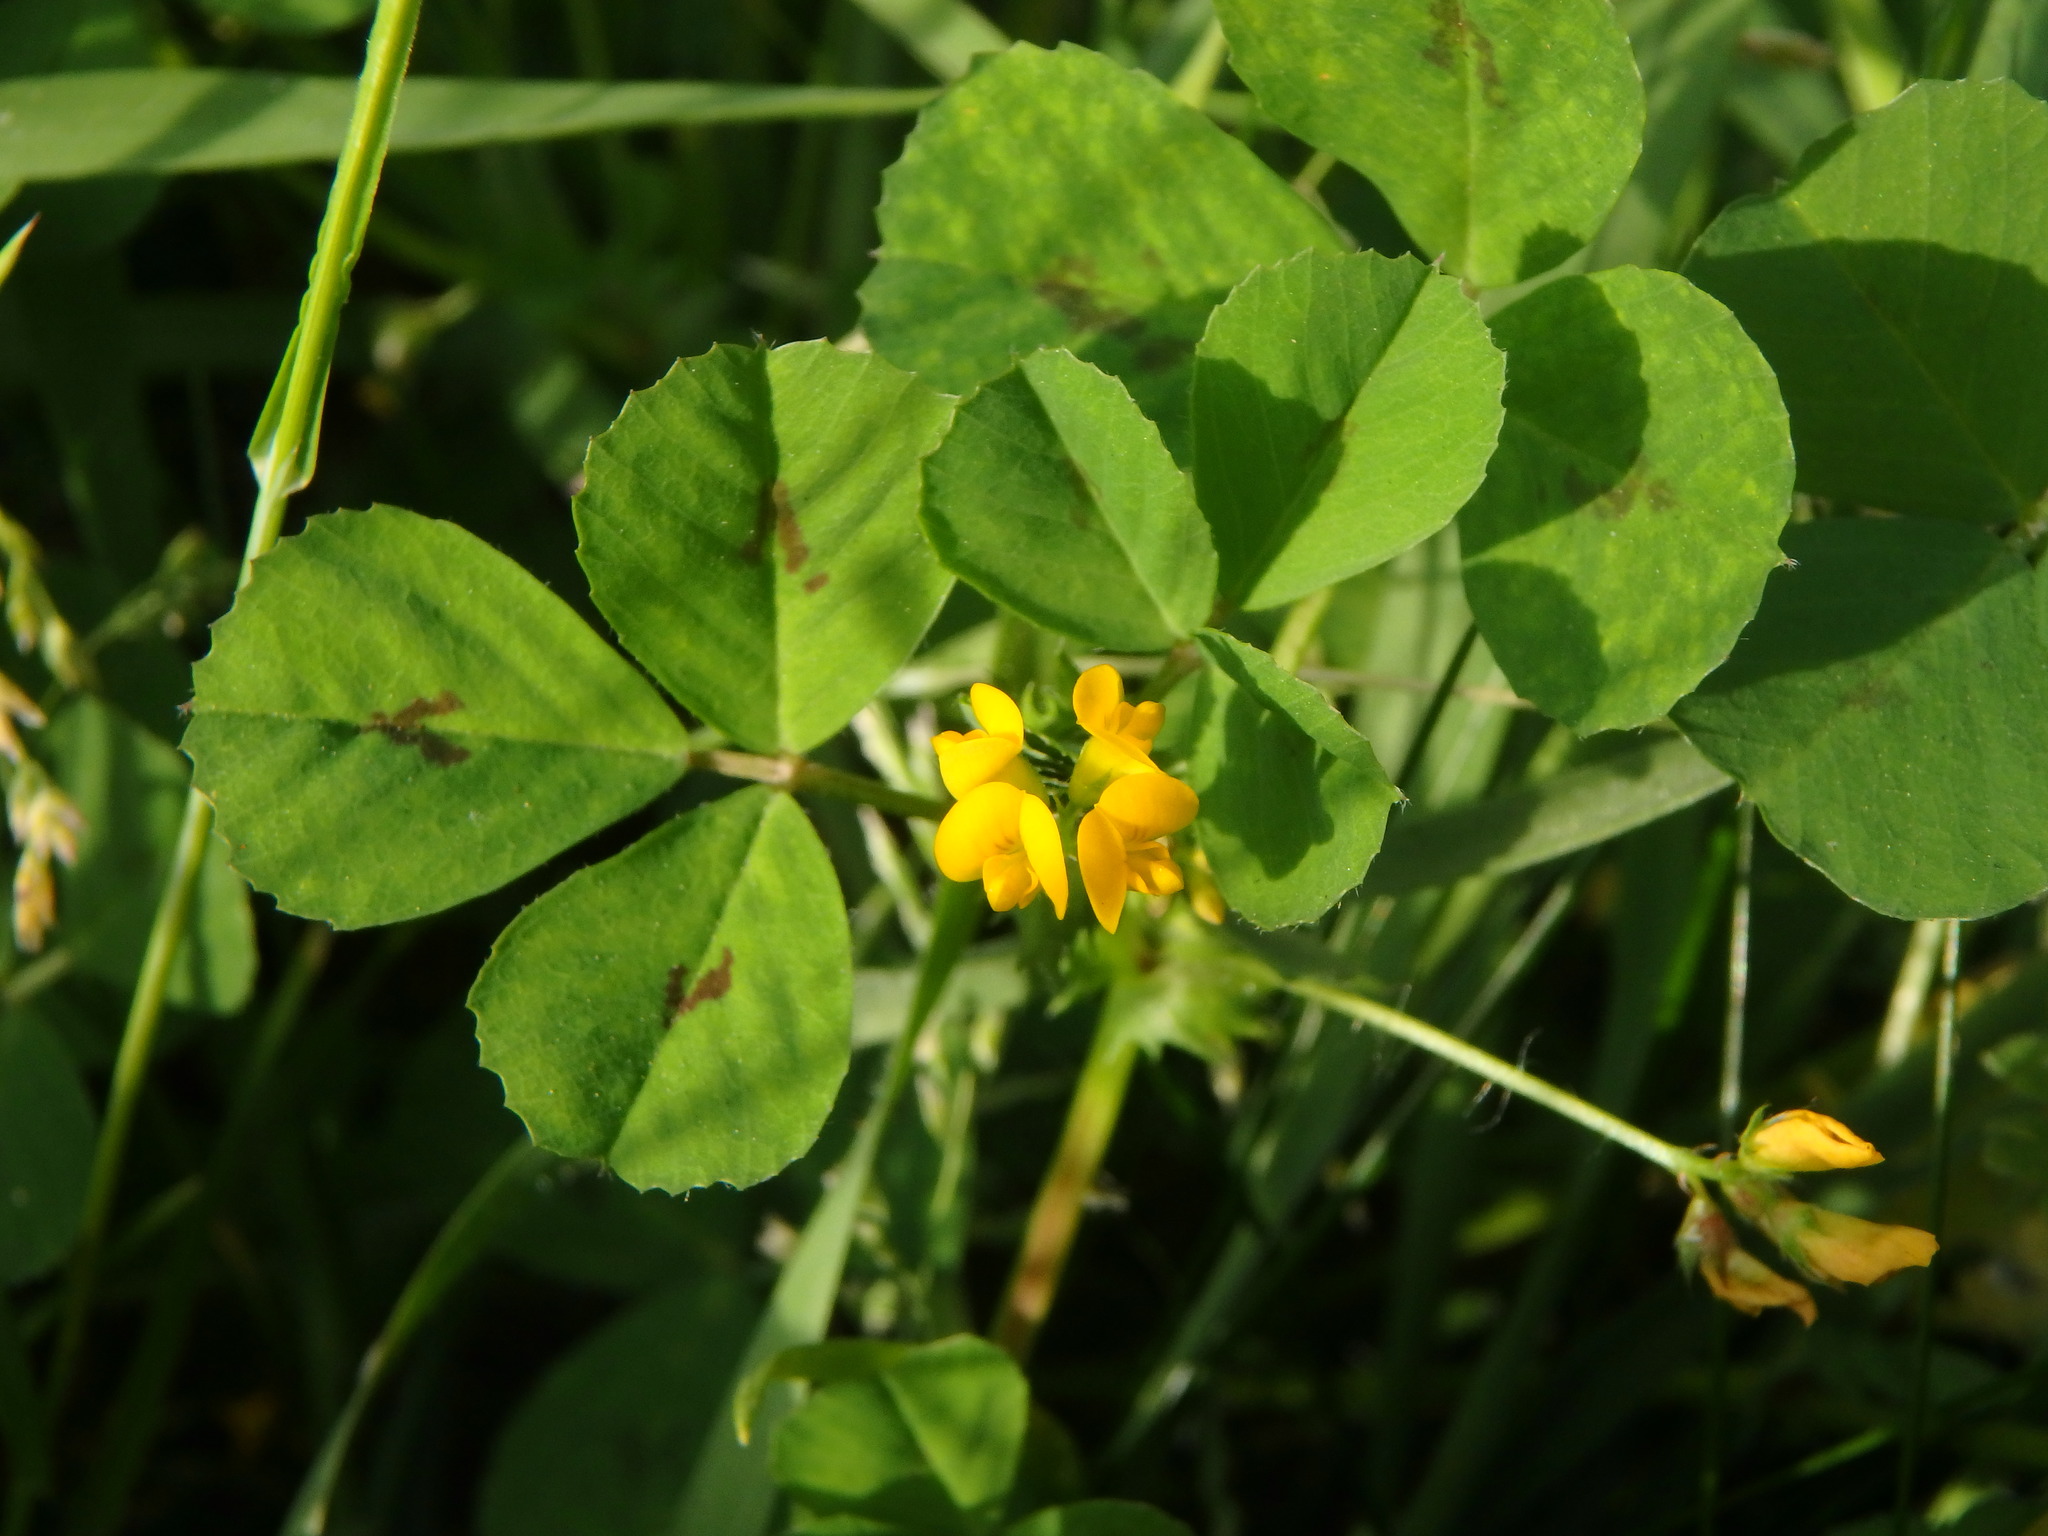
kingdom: Plantae
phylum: Tracheophyta
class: Magnoliopsida
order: Fabales
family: Fabaceae
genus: Medicago
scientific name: Medicago arabica
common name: Spotted medick
